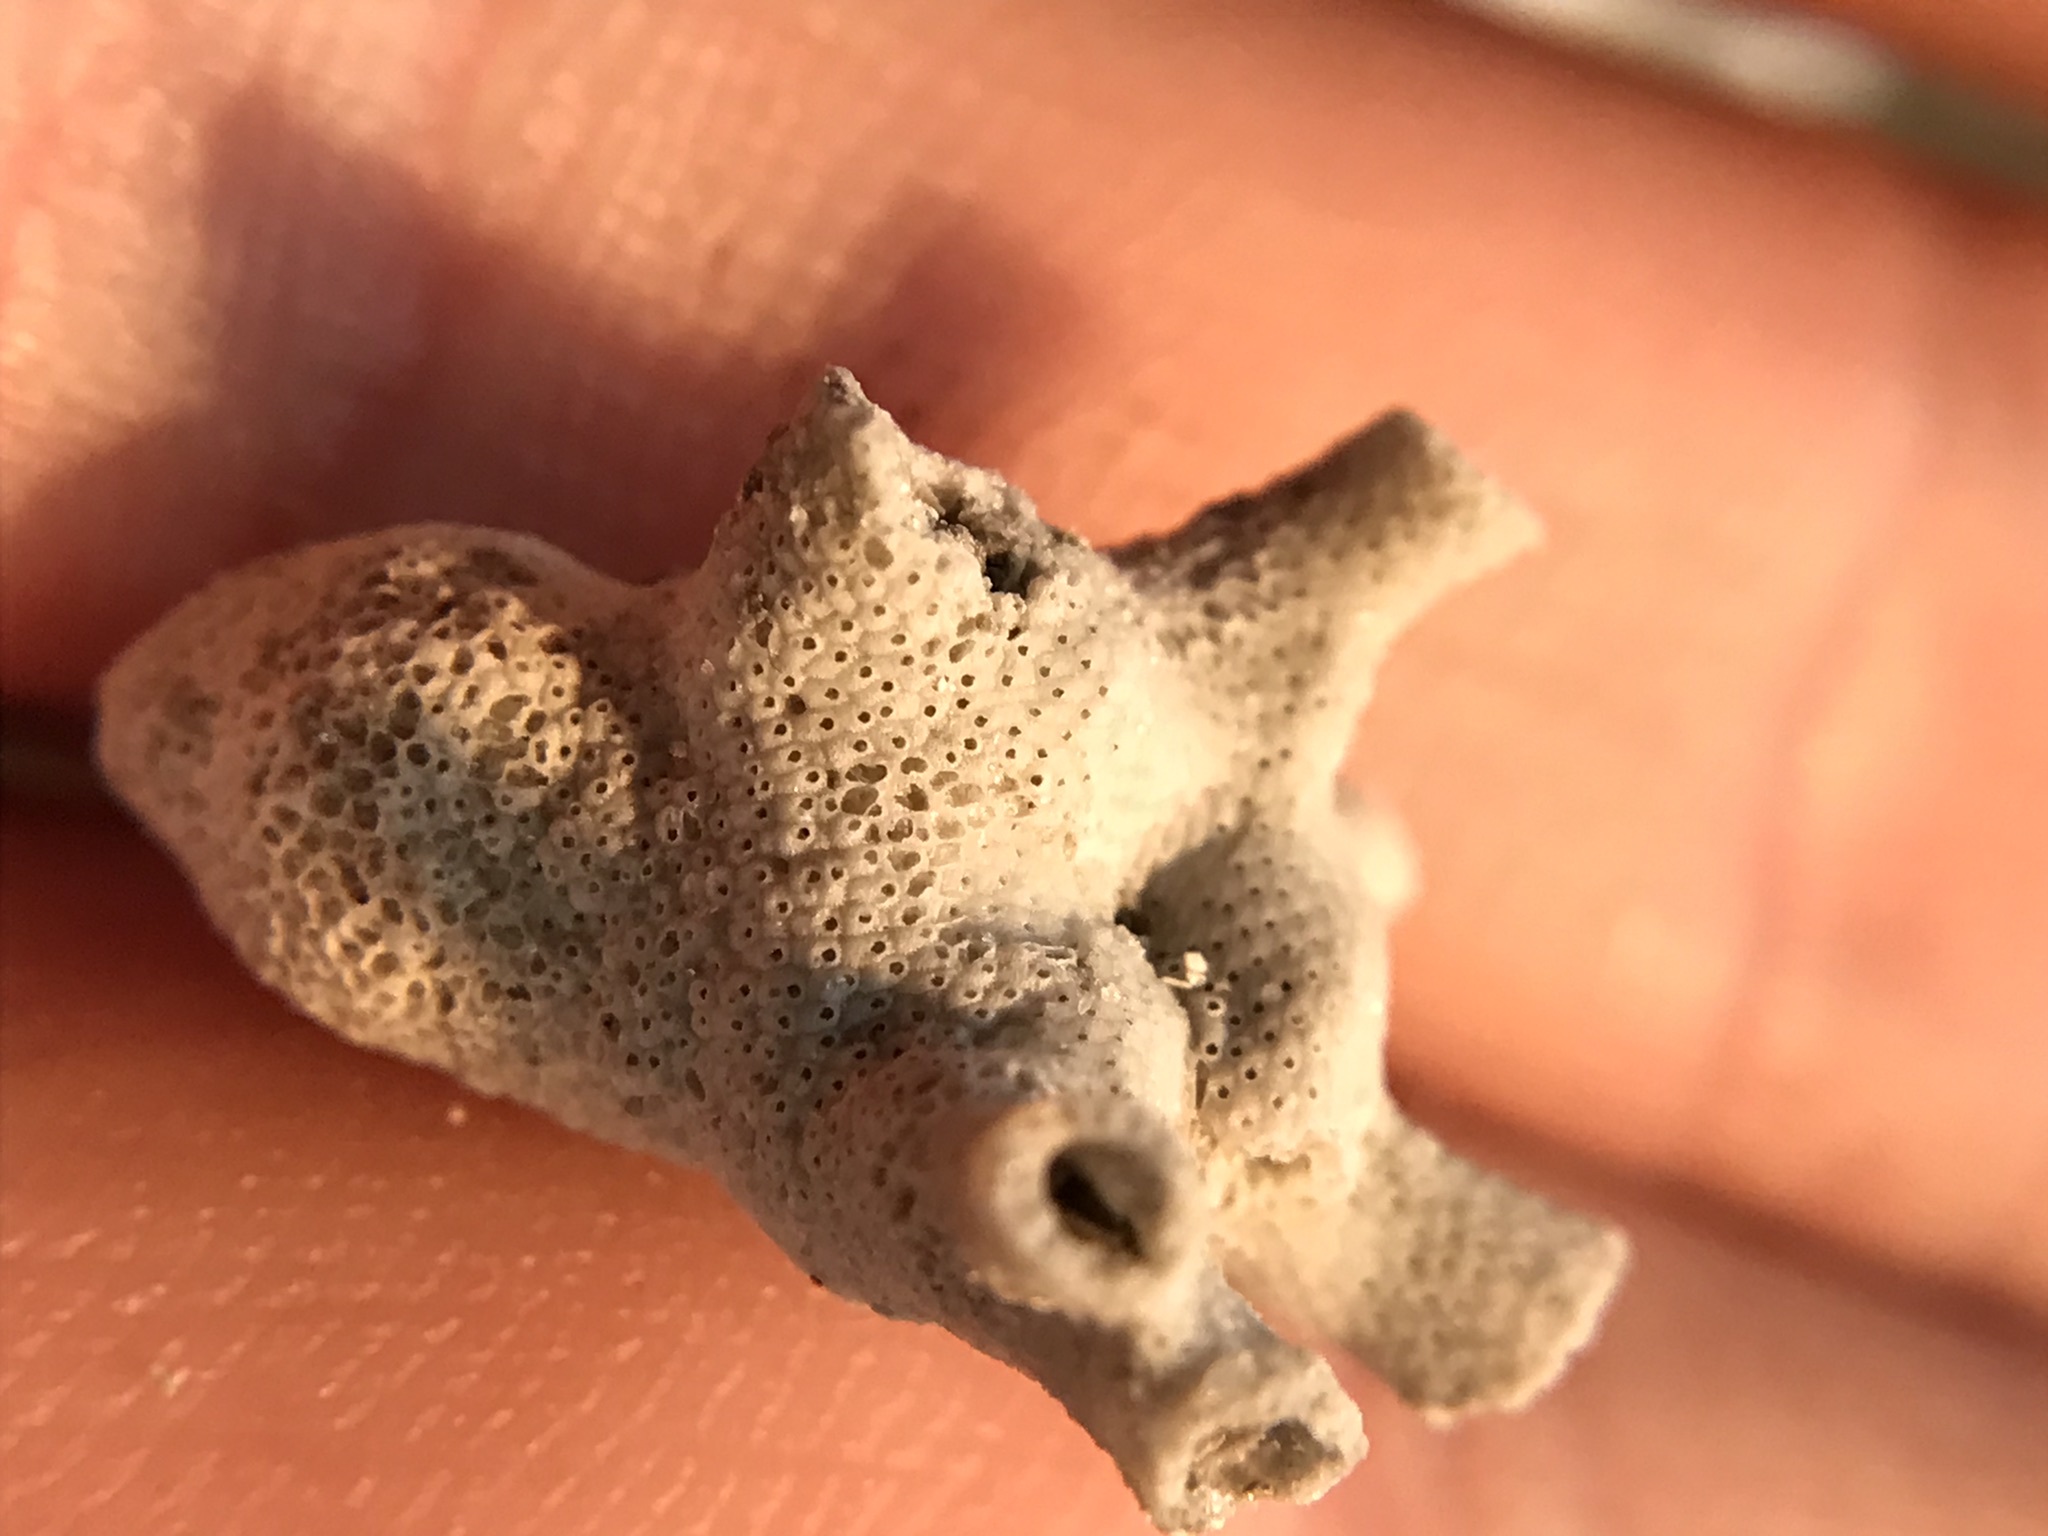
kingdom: Animalia
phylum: Bryozoa
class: Gymnolaemata
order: Cheilostomatida
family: Schizoporellidae
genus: Schizoporella
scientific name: Schizoporella pungens
